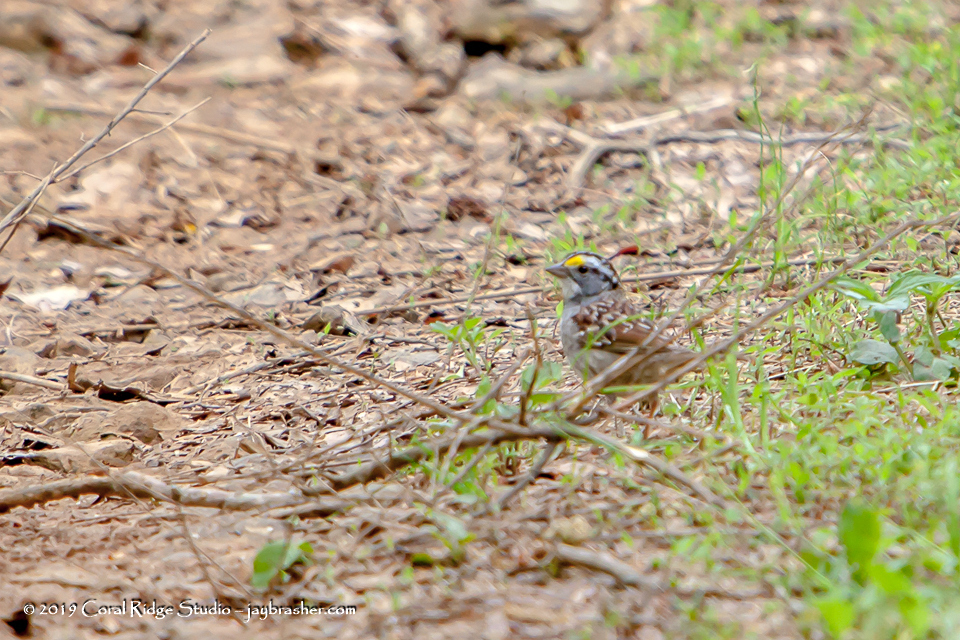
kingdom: Animalia
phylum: Chordata
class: Aves
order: Passeriformes
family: Passerellidae
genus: Zonotrichia
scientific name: Zonotrichia albicollis
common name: White-throated sparrow
